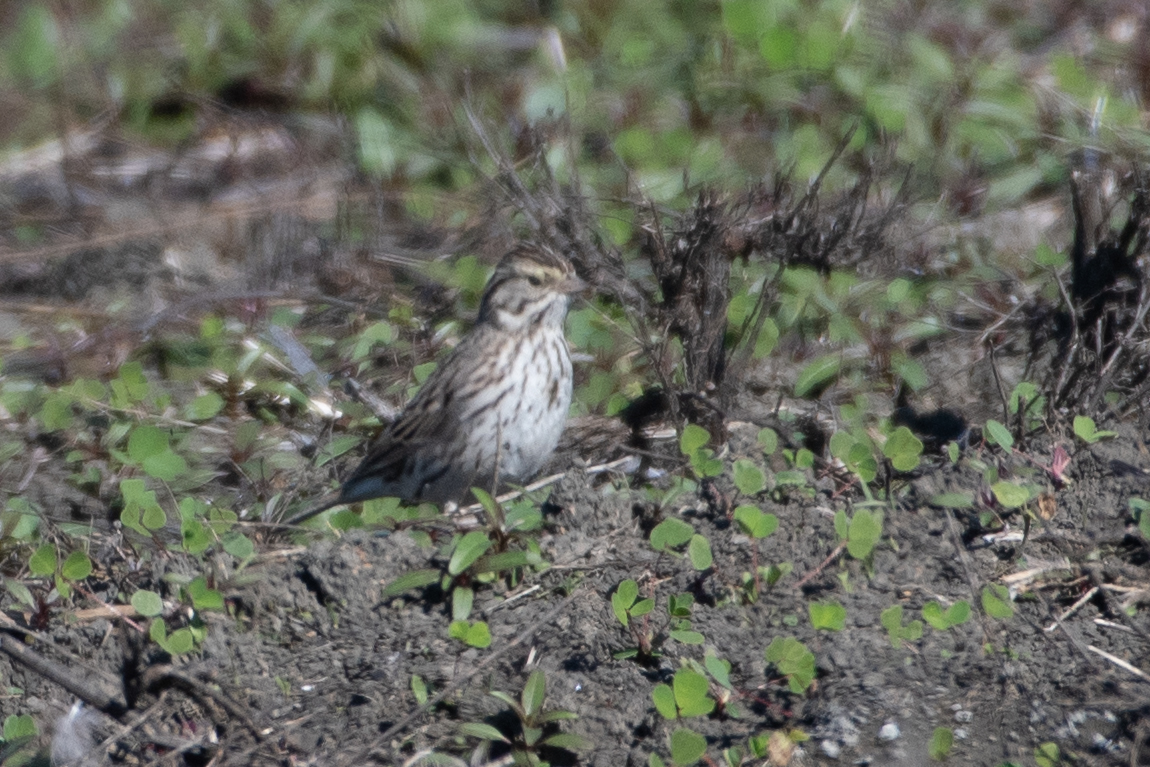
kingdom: Animalia
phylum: Chordata
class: Aves
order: Passeriformes
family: Passerellidae
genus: Passerculus
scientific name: Passerculus sandwichensis
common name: Savannah sparrow
